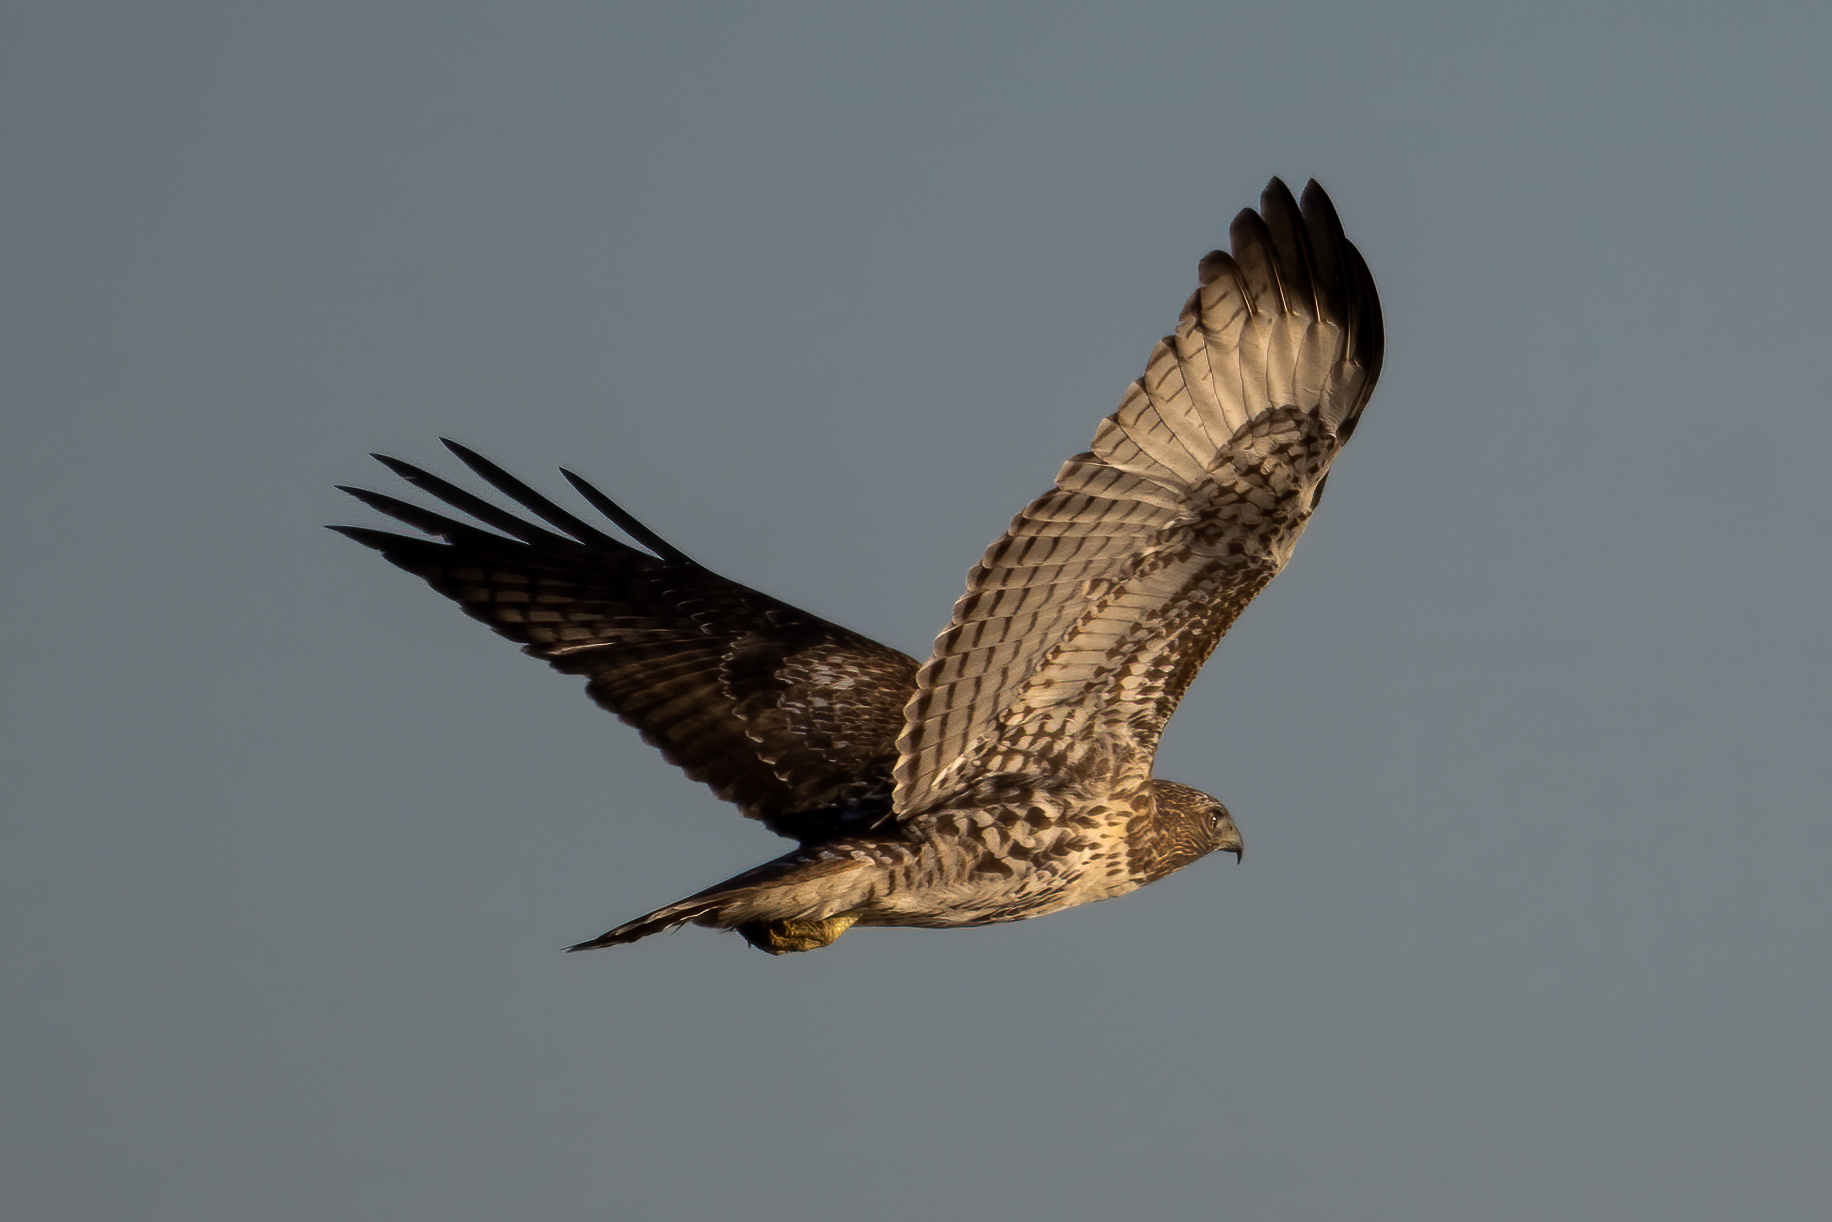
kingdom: Animalia
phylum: Chordata
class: Aves
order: Accipitriformes
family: Accipitridae
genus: Buteo
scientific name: Buteo jamaicensis
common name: Red-tailed hawk
